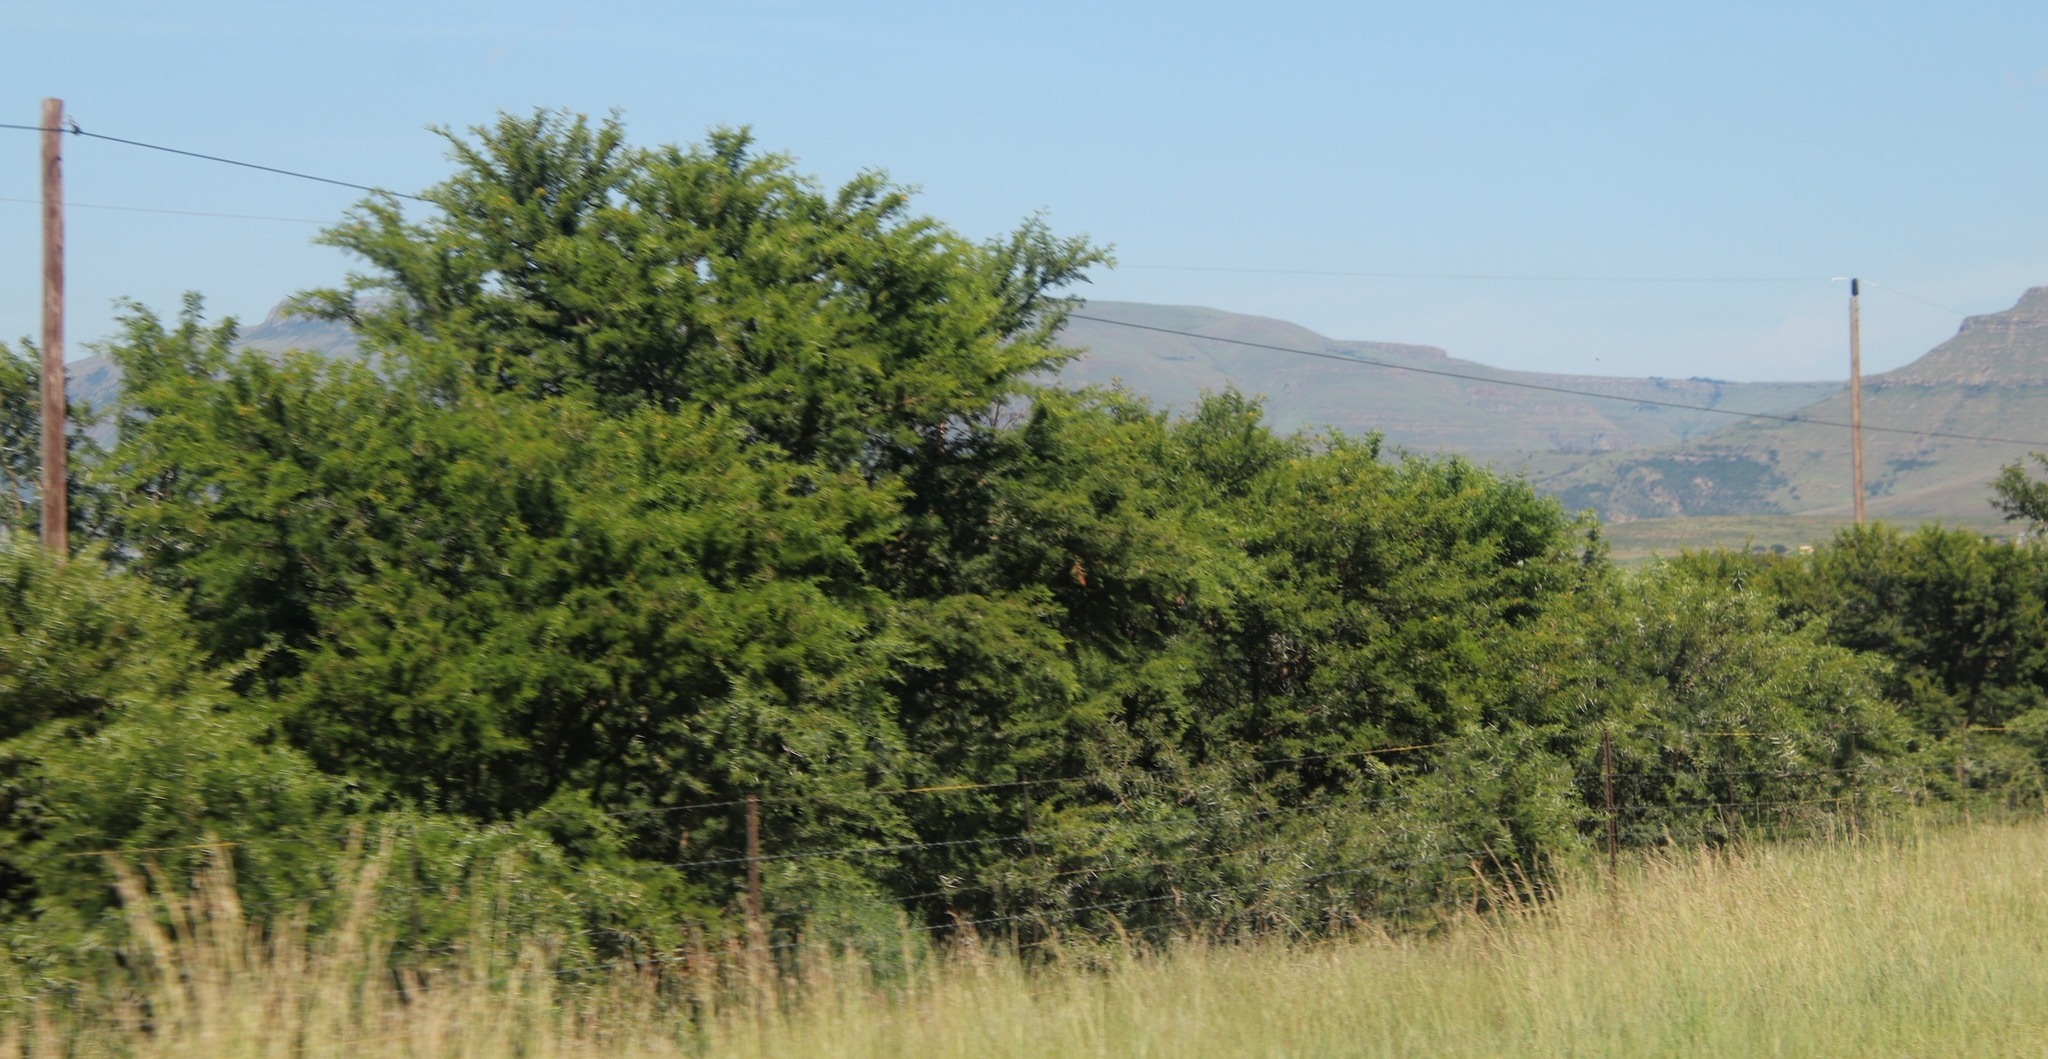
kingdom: Plantae
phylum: Tracheophyta
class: Magnoliopsida
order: Fabales
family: Fabaceae
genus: Vachellia
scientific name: Vachellia karroo
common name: Sweet thorn
